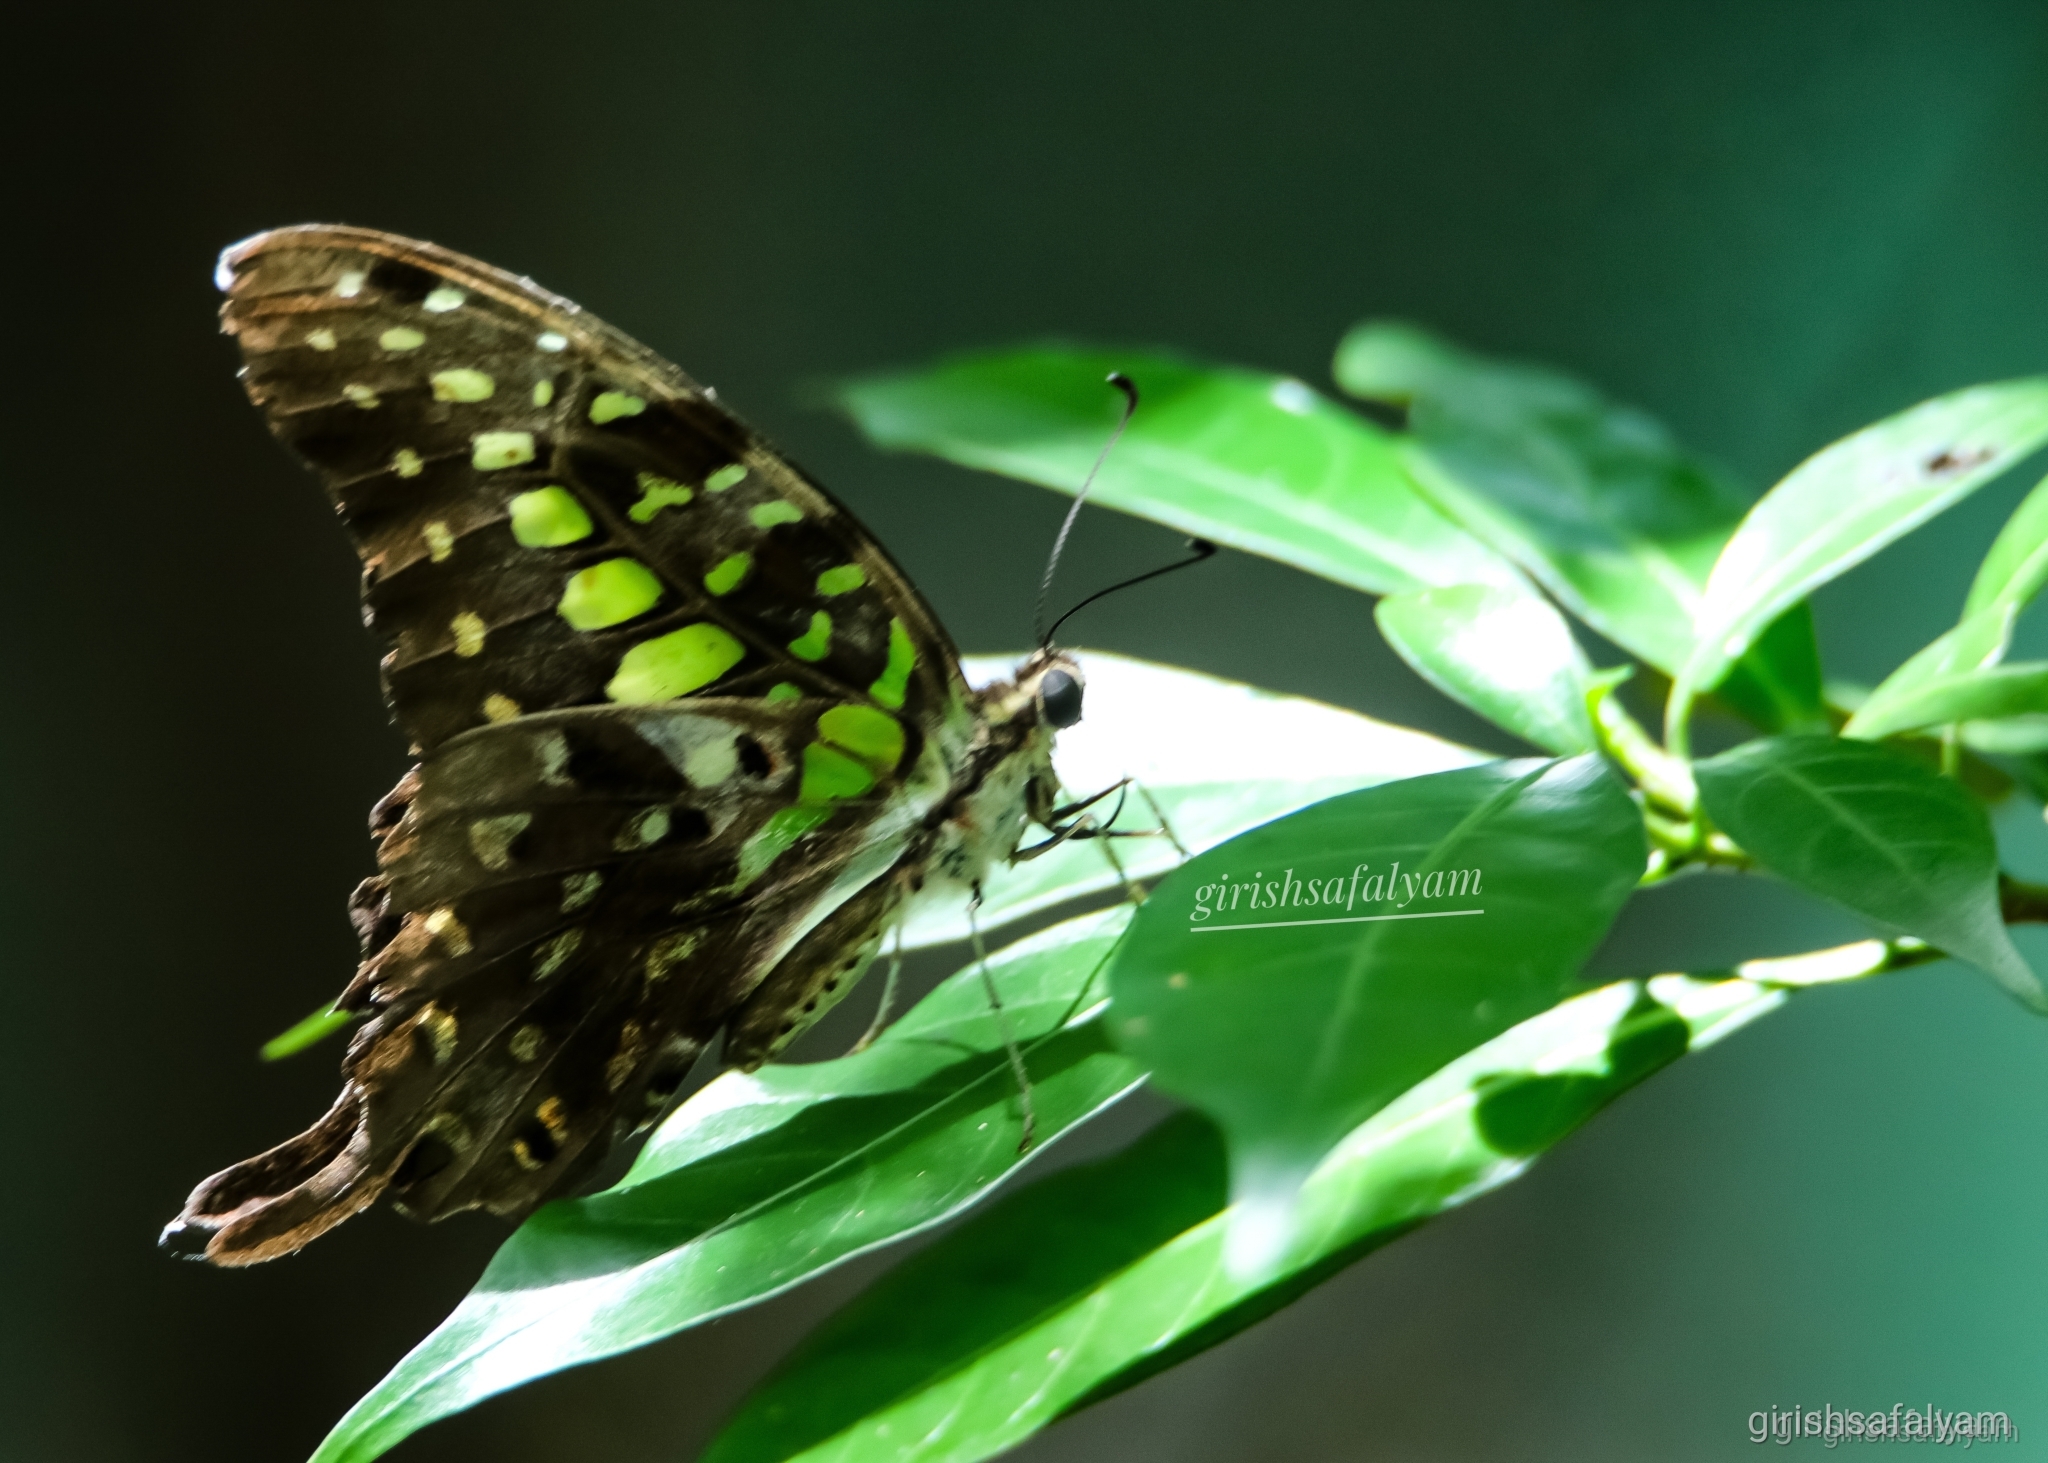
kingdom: Animalia
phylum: Arthropoda
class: Insecta
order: Lepidoptera
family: Papilionidae
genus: Graphium
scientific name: Graphium agamemnon
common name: Tailed jay
